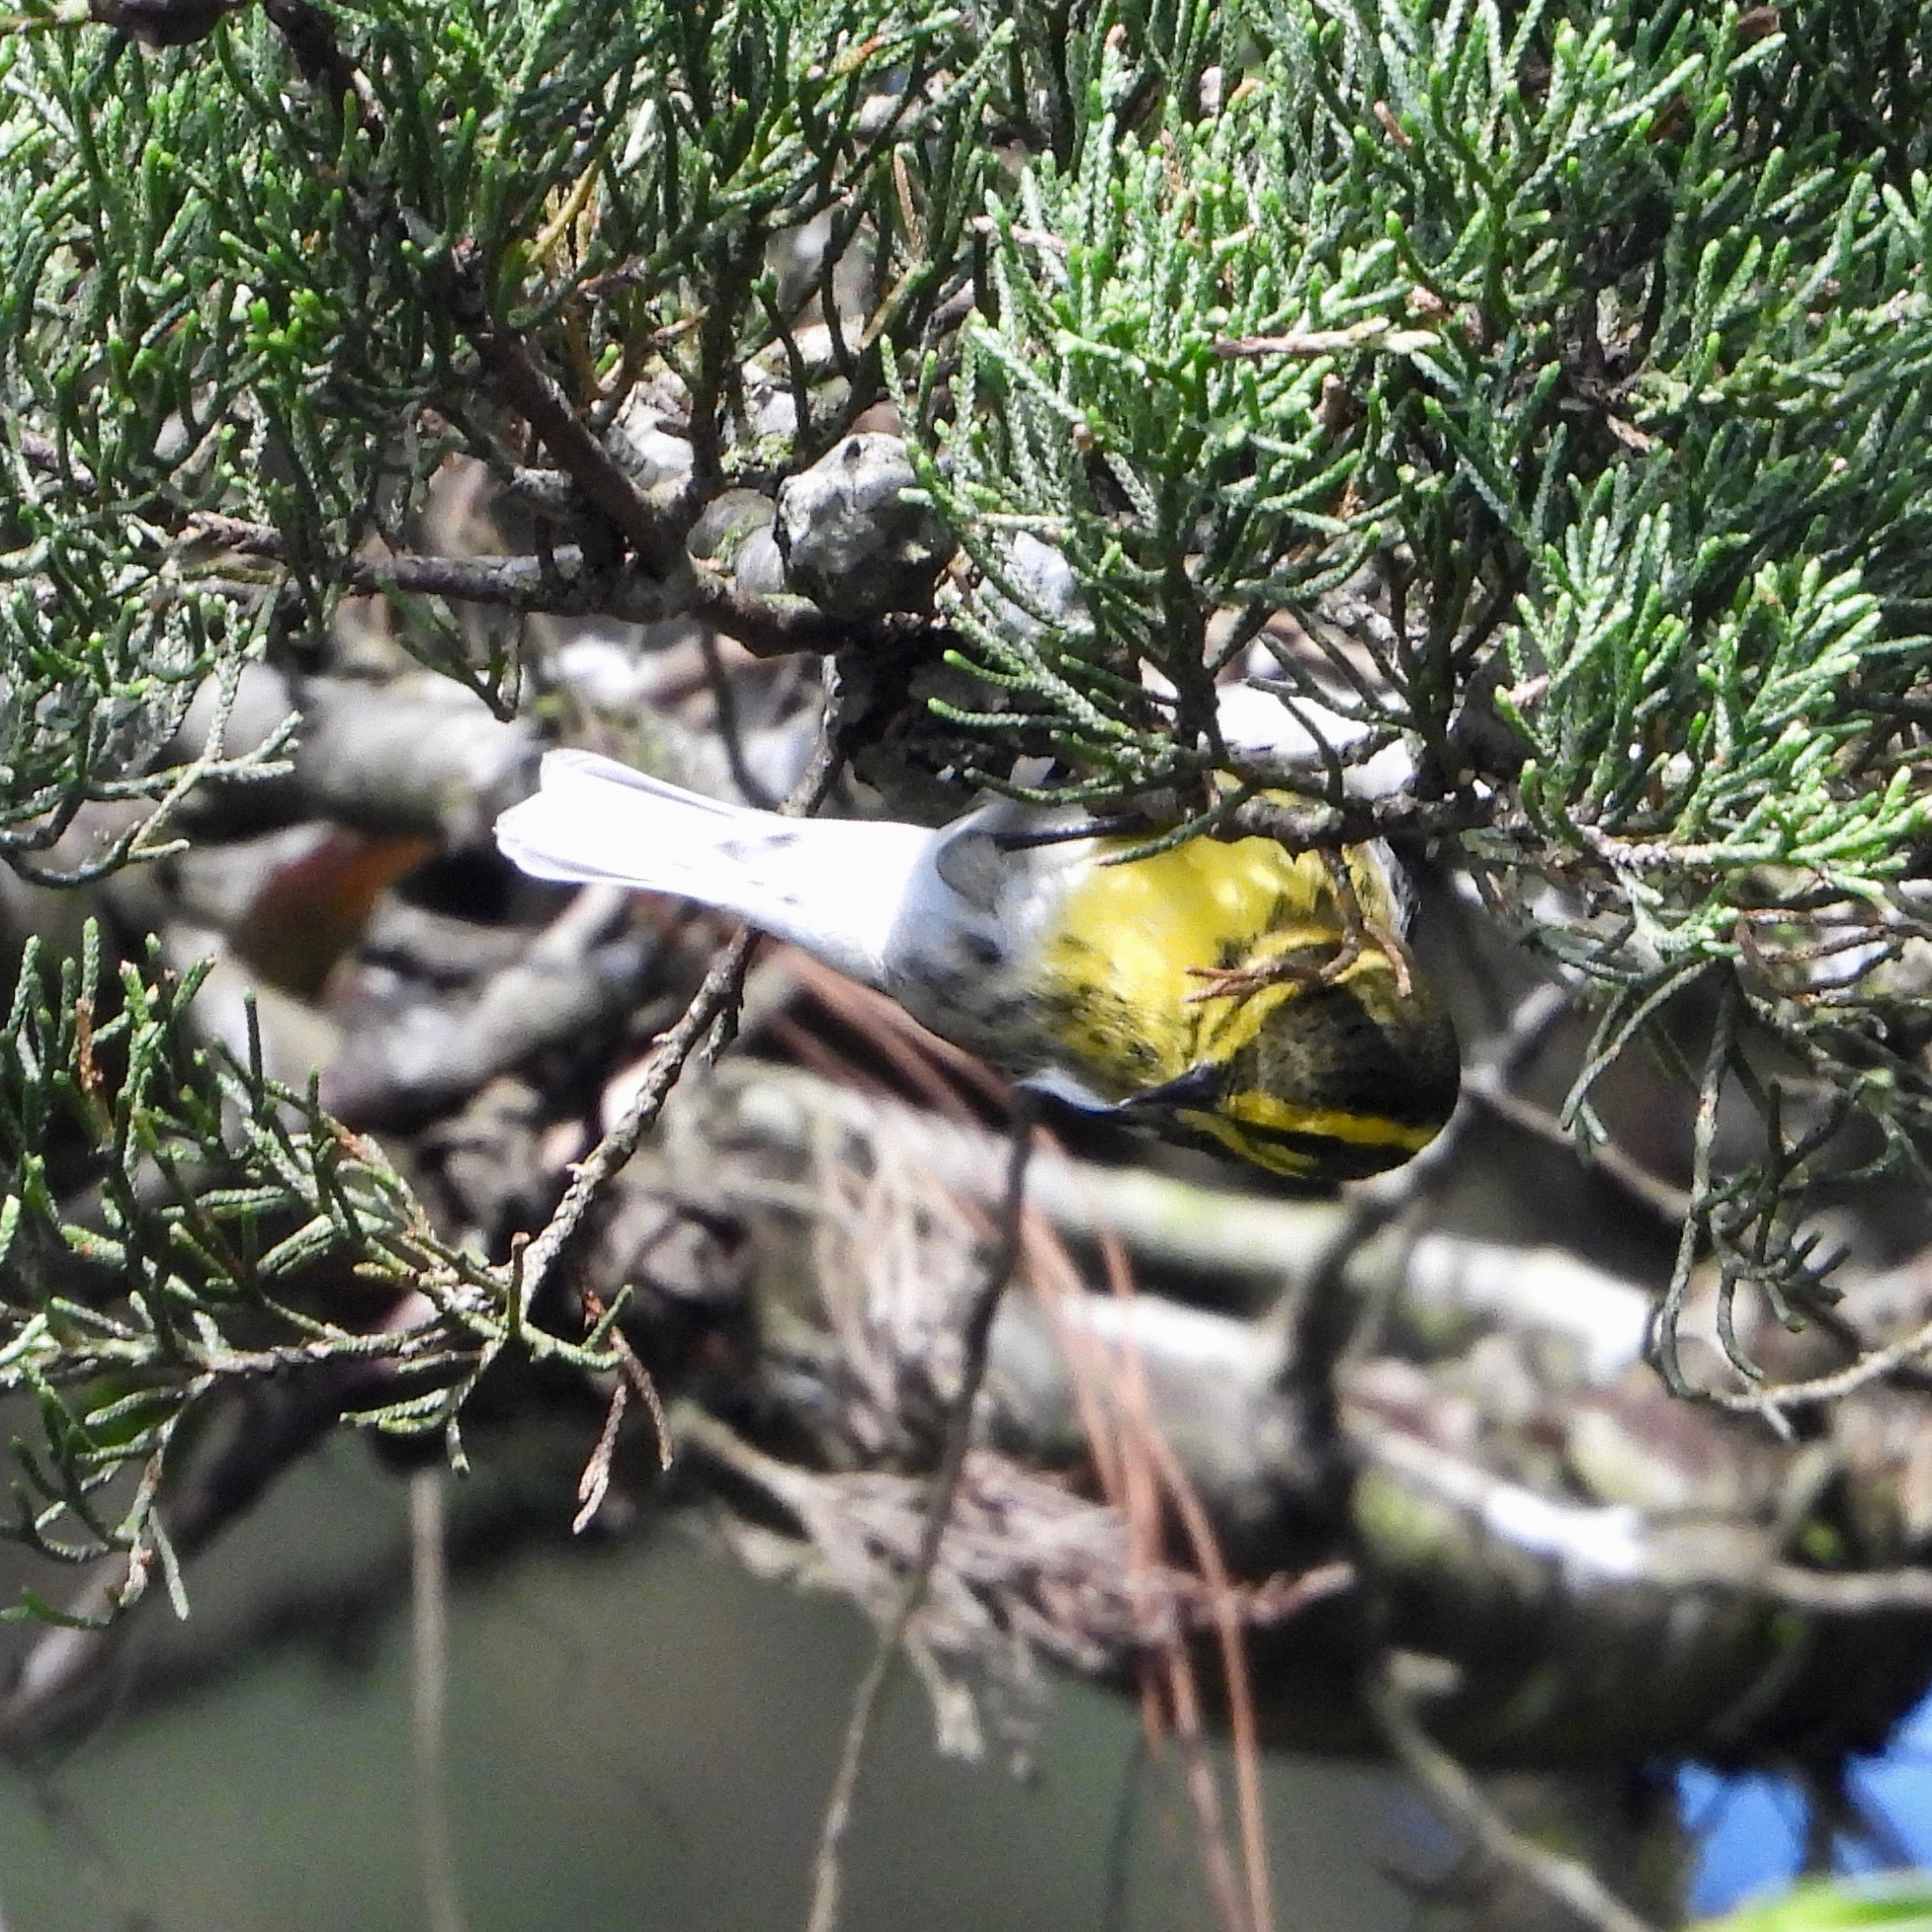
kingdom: Animalia
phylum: Chordata
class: Aves
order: Passeriformes
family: Parulidae
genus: Setophaga
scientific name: Setophaga townsendi
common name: Townsend's warbler
